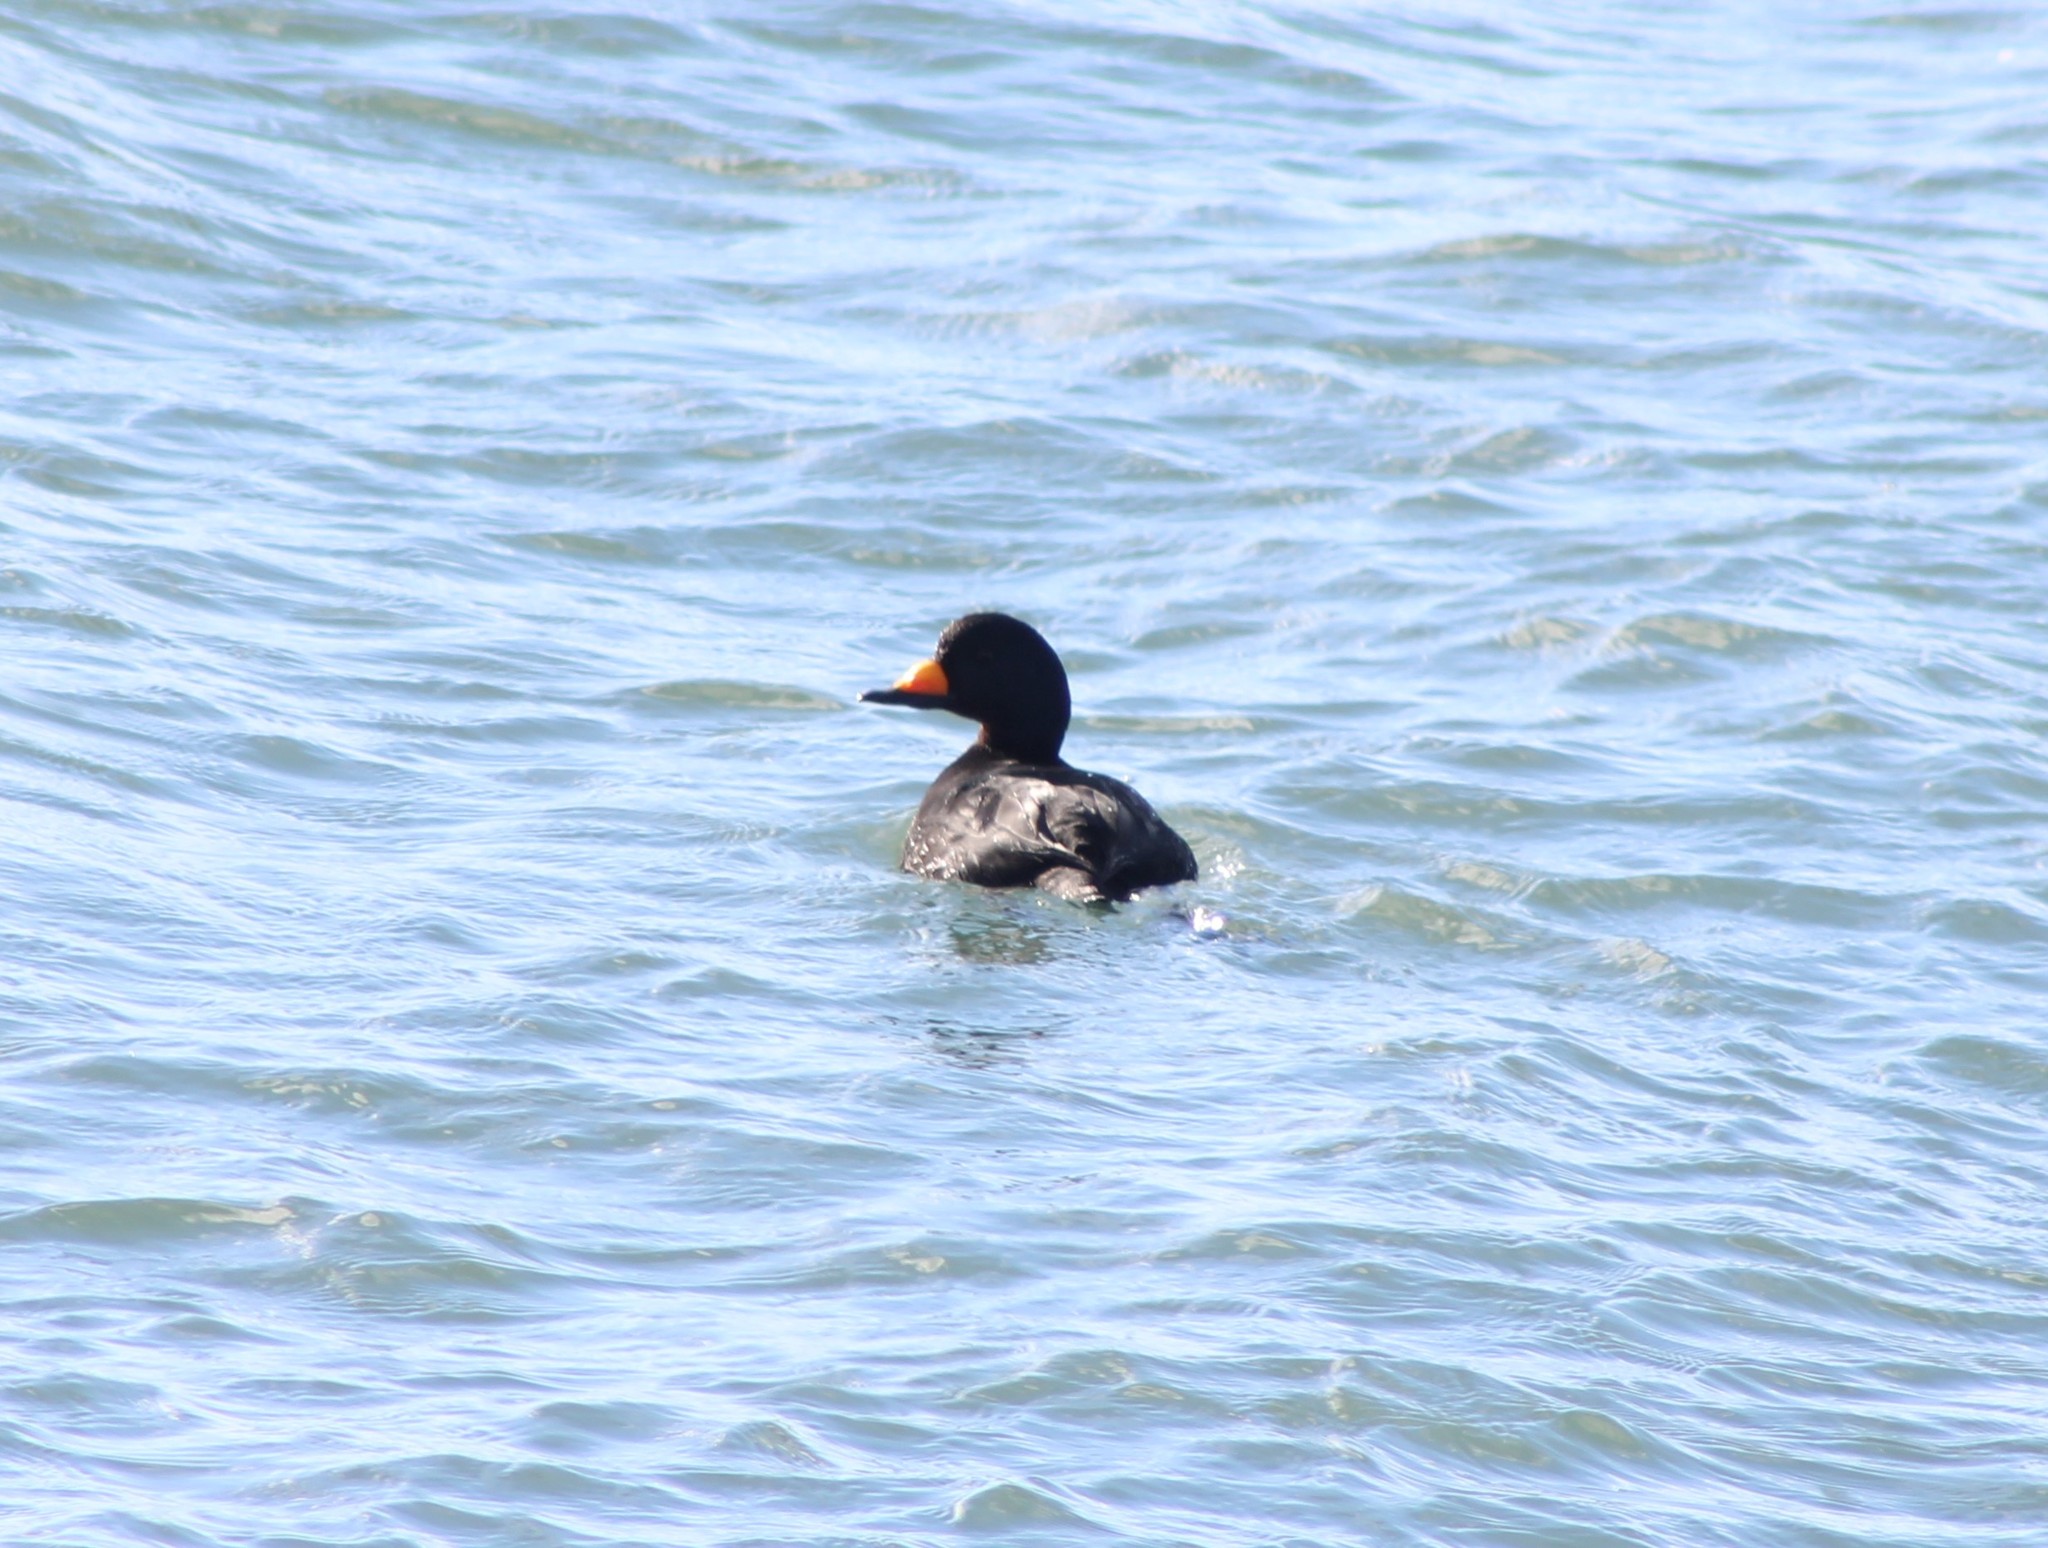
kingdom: Animalia
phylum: Chordata
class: Aves
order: Anseriformes
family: Anatidae
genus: Melanitta
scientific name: Melanitta americana
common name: Black scoter
